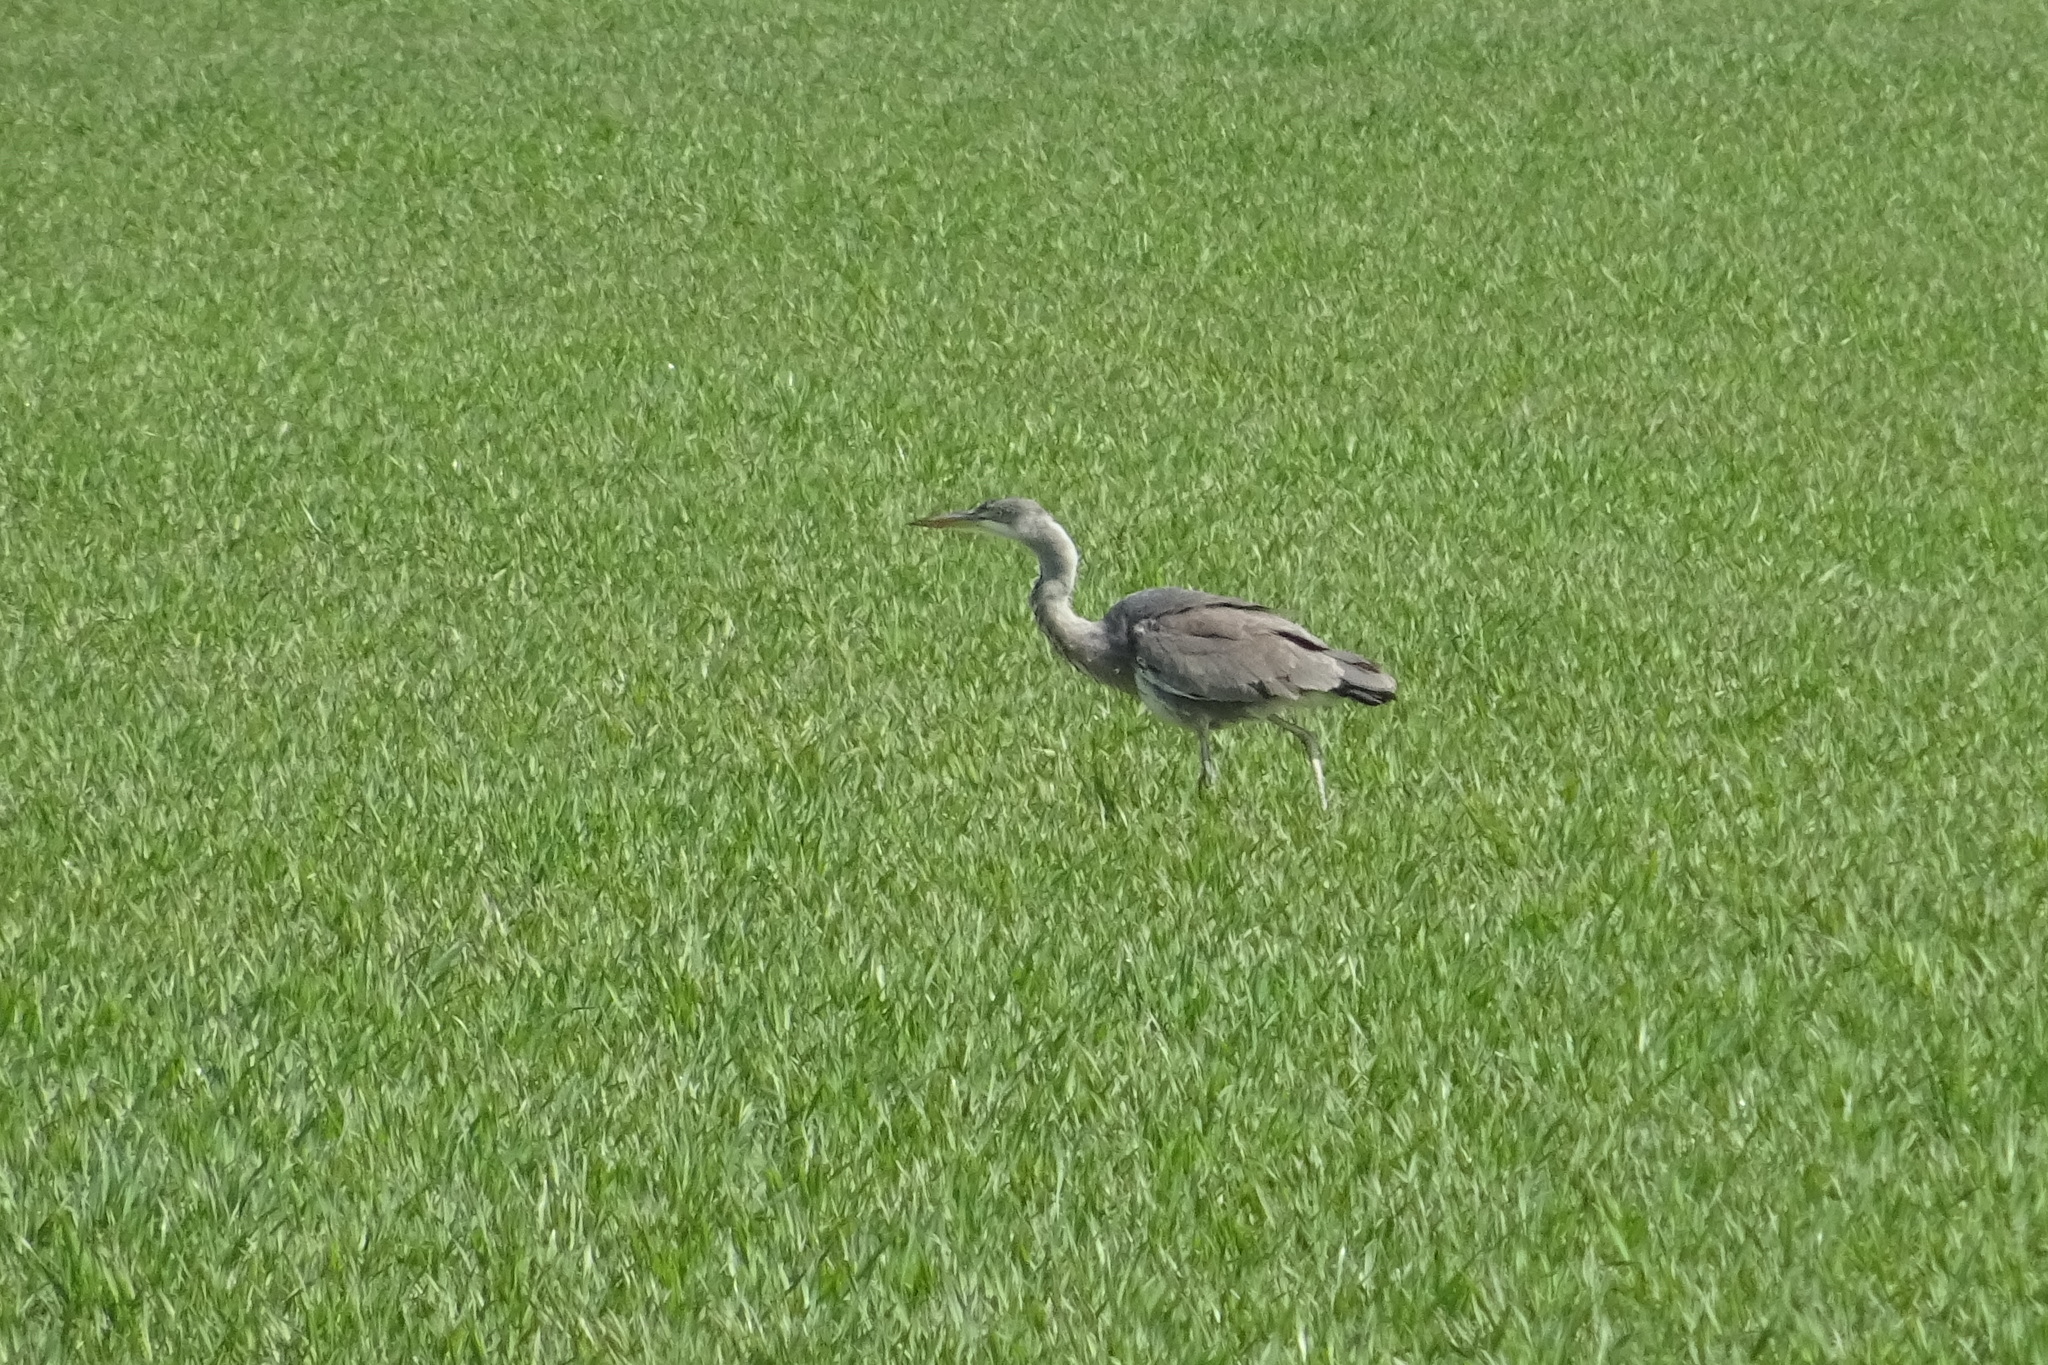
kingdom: Animalia
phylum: Chordata
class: Aves
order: Pelecaniformes
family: Ardeidae
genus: Ardea
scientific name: Ardea cinerea
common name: Grey heron
